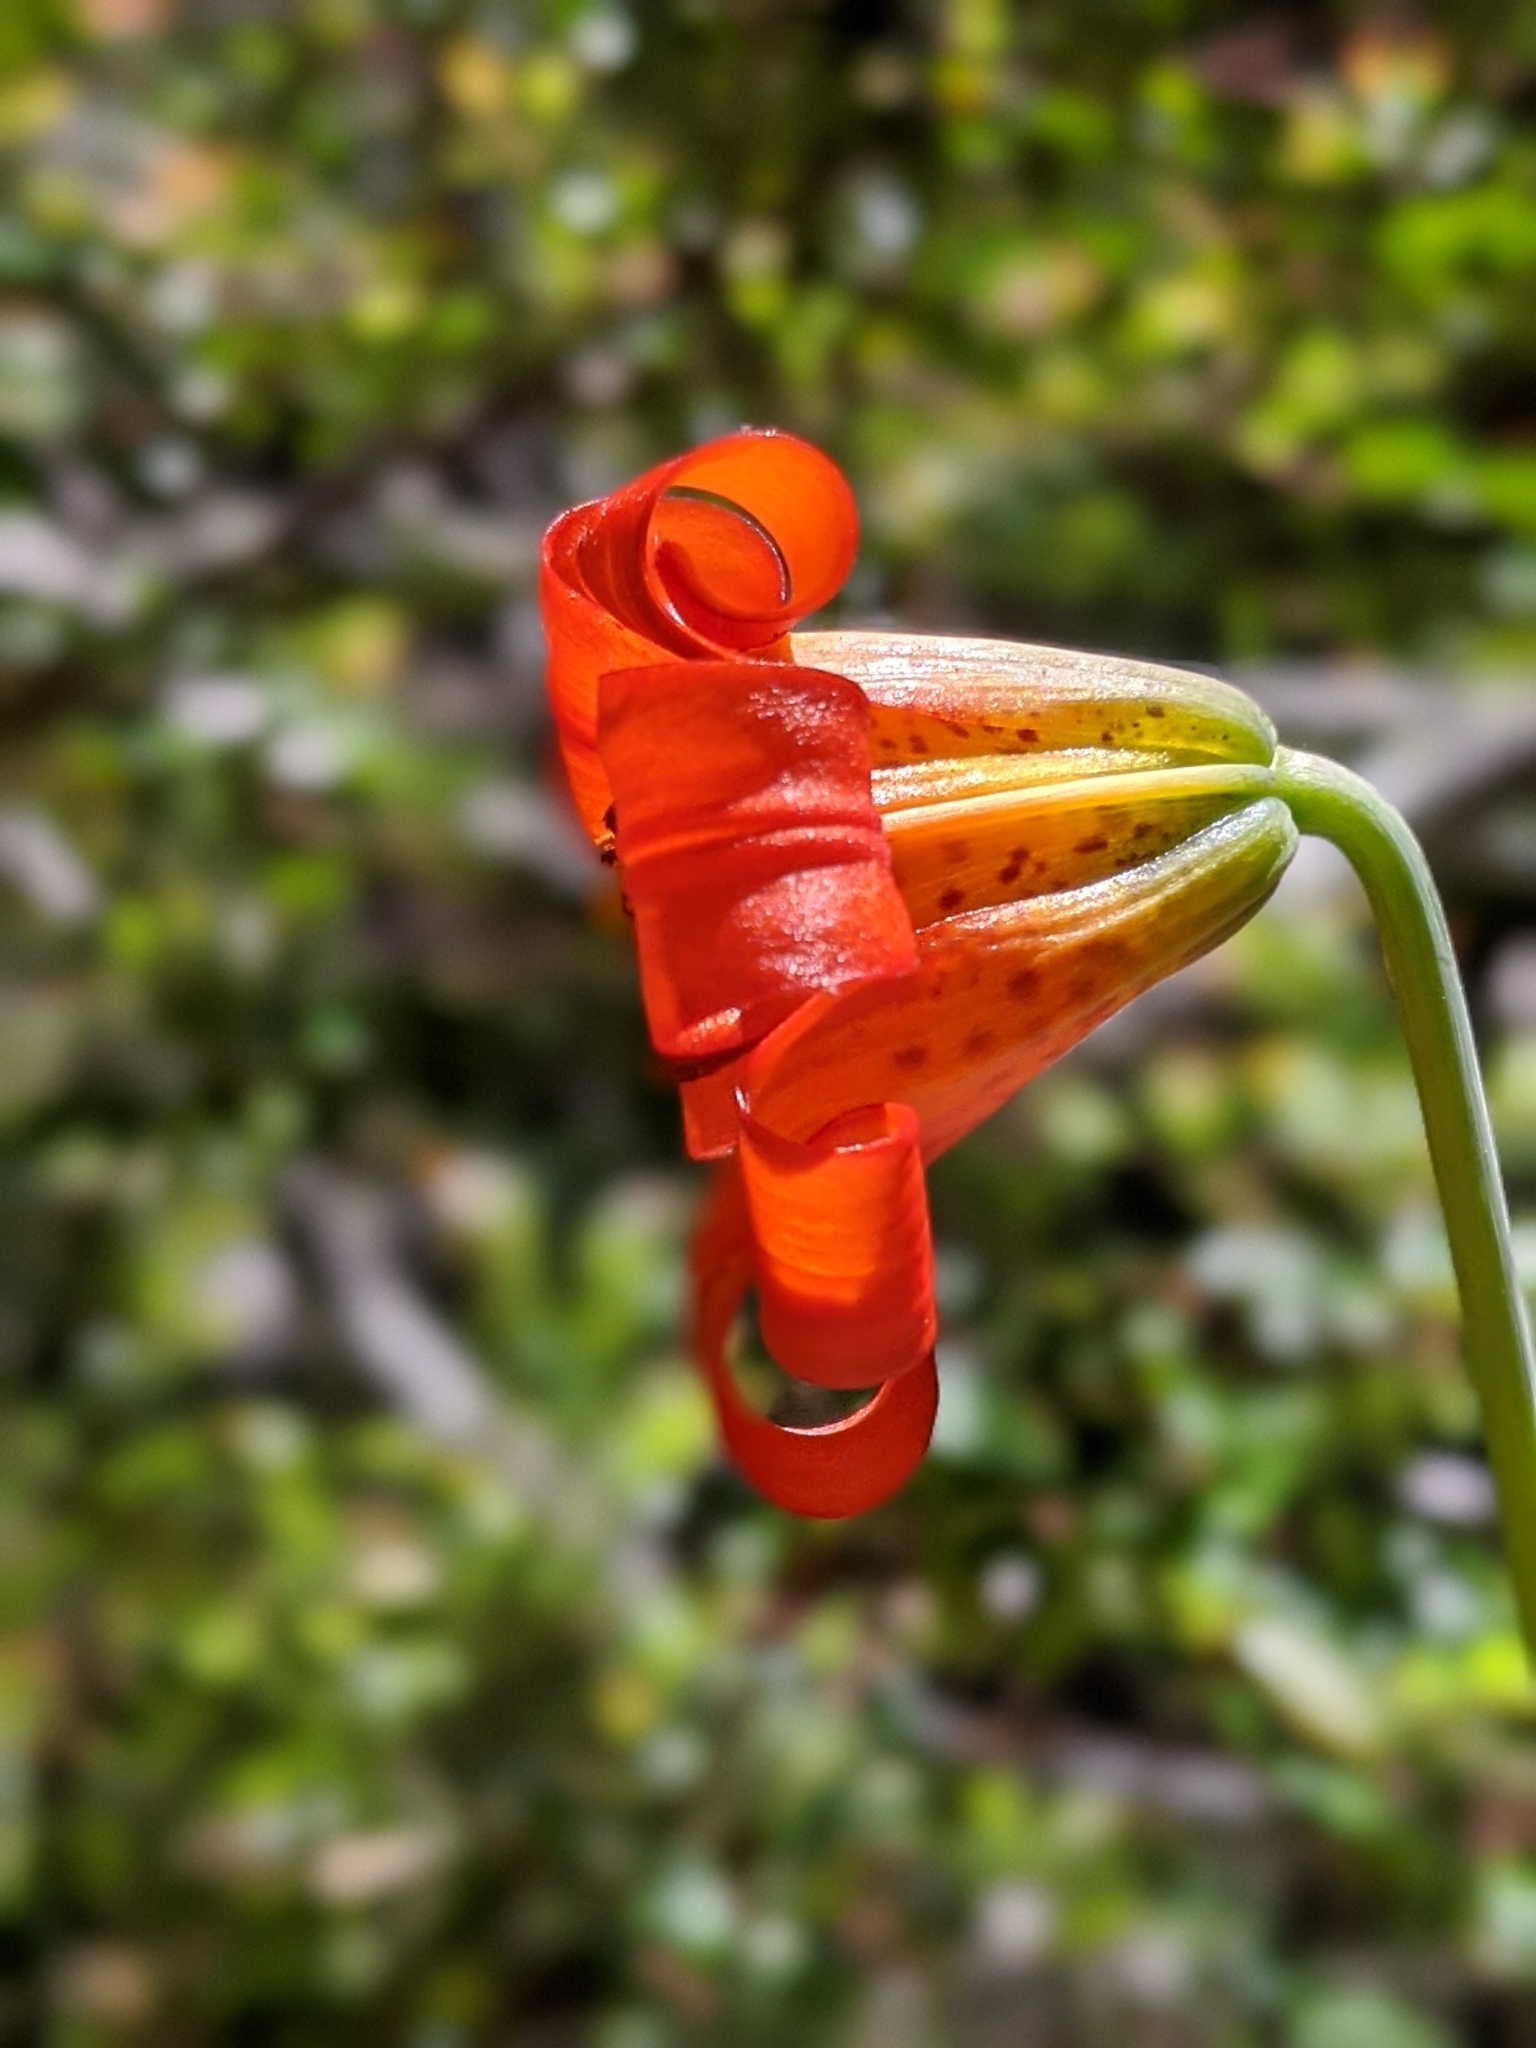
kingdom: Plantae
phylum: Tracheophyta
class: Liliopsida
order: Liliales
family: Liliaceae
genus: Lilium
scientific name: Lilium maritimum
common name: Coastal lily
